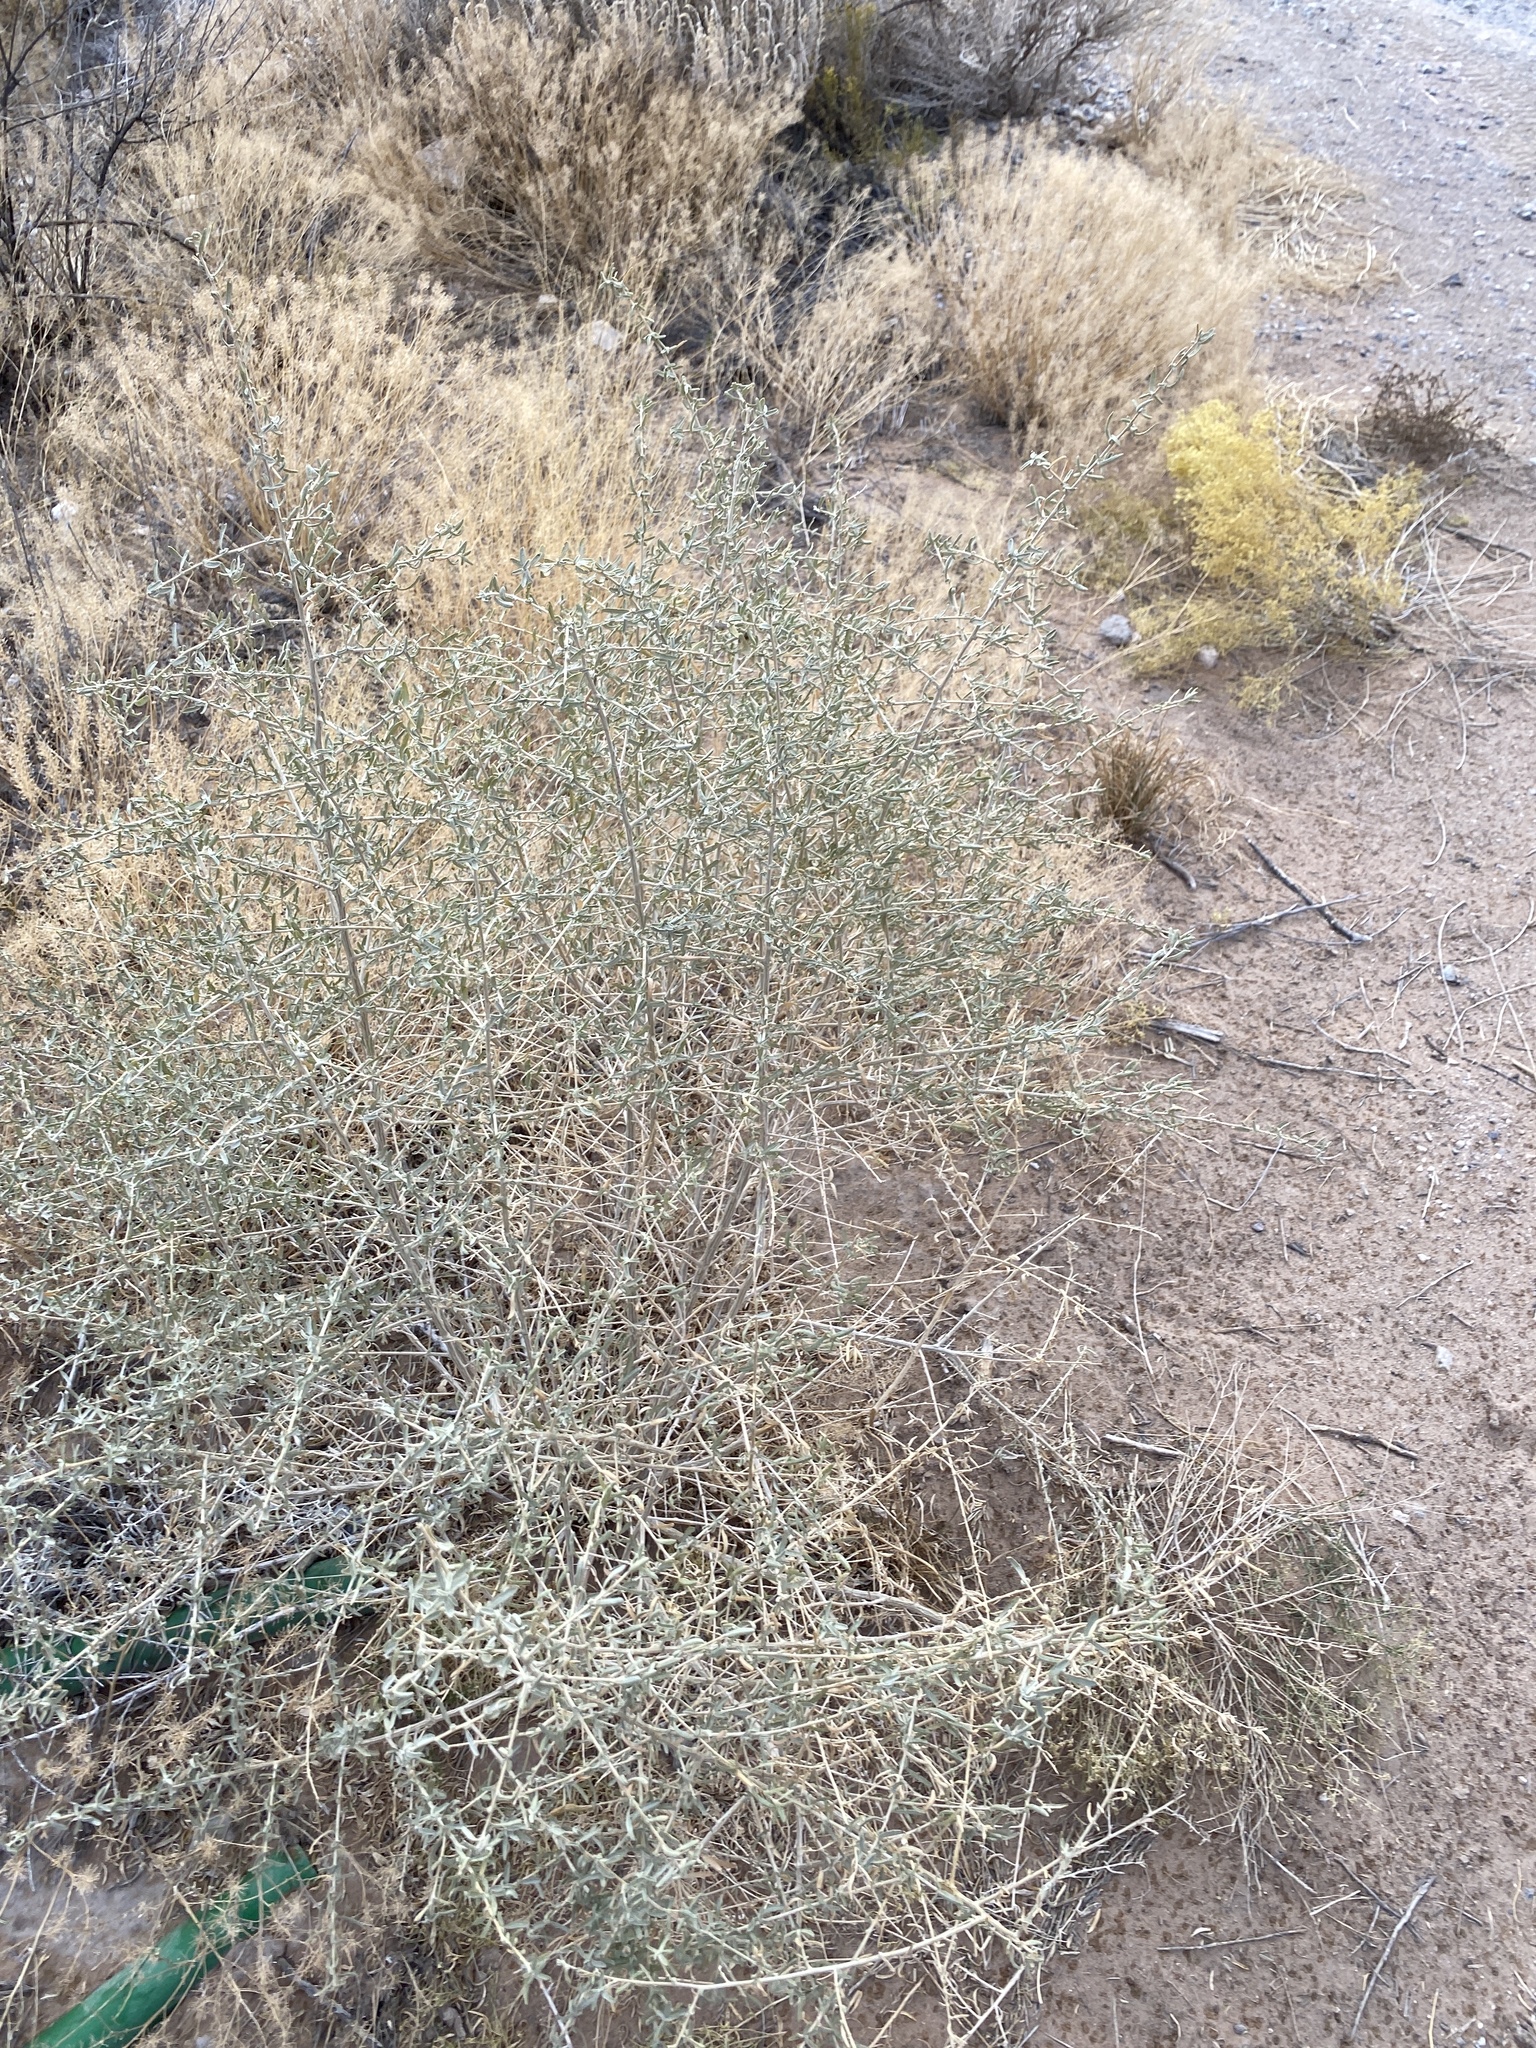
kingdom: Plantae
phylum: Tracheophyta
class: Magnoliopsida
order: Caryophyllales
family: Amaranthaceae
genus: Atriplex
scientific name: Atriplex canescens
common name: Four-wing saltbush
